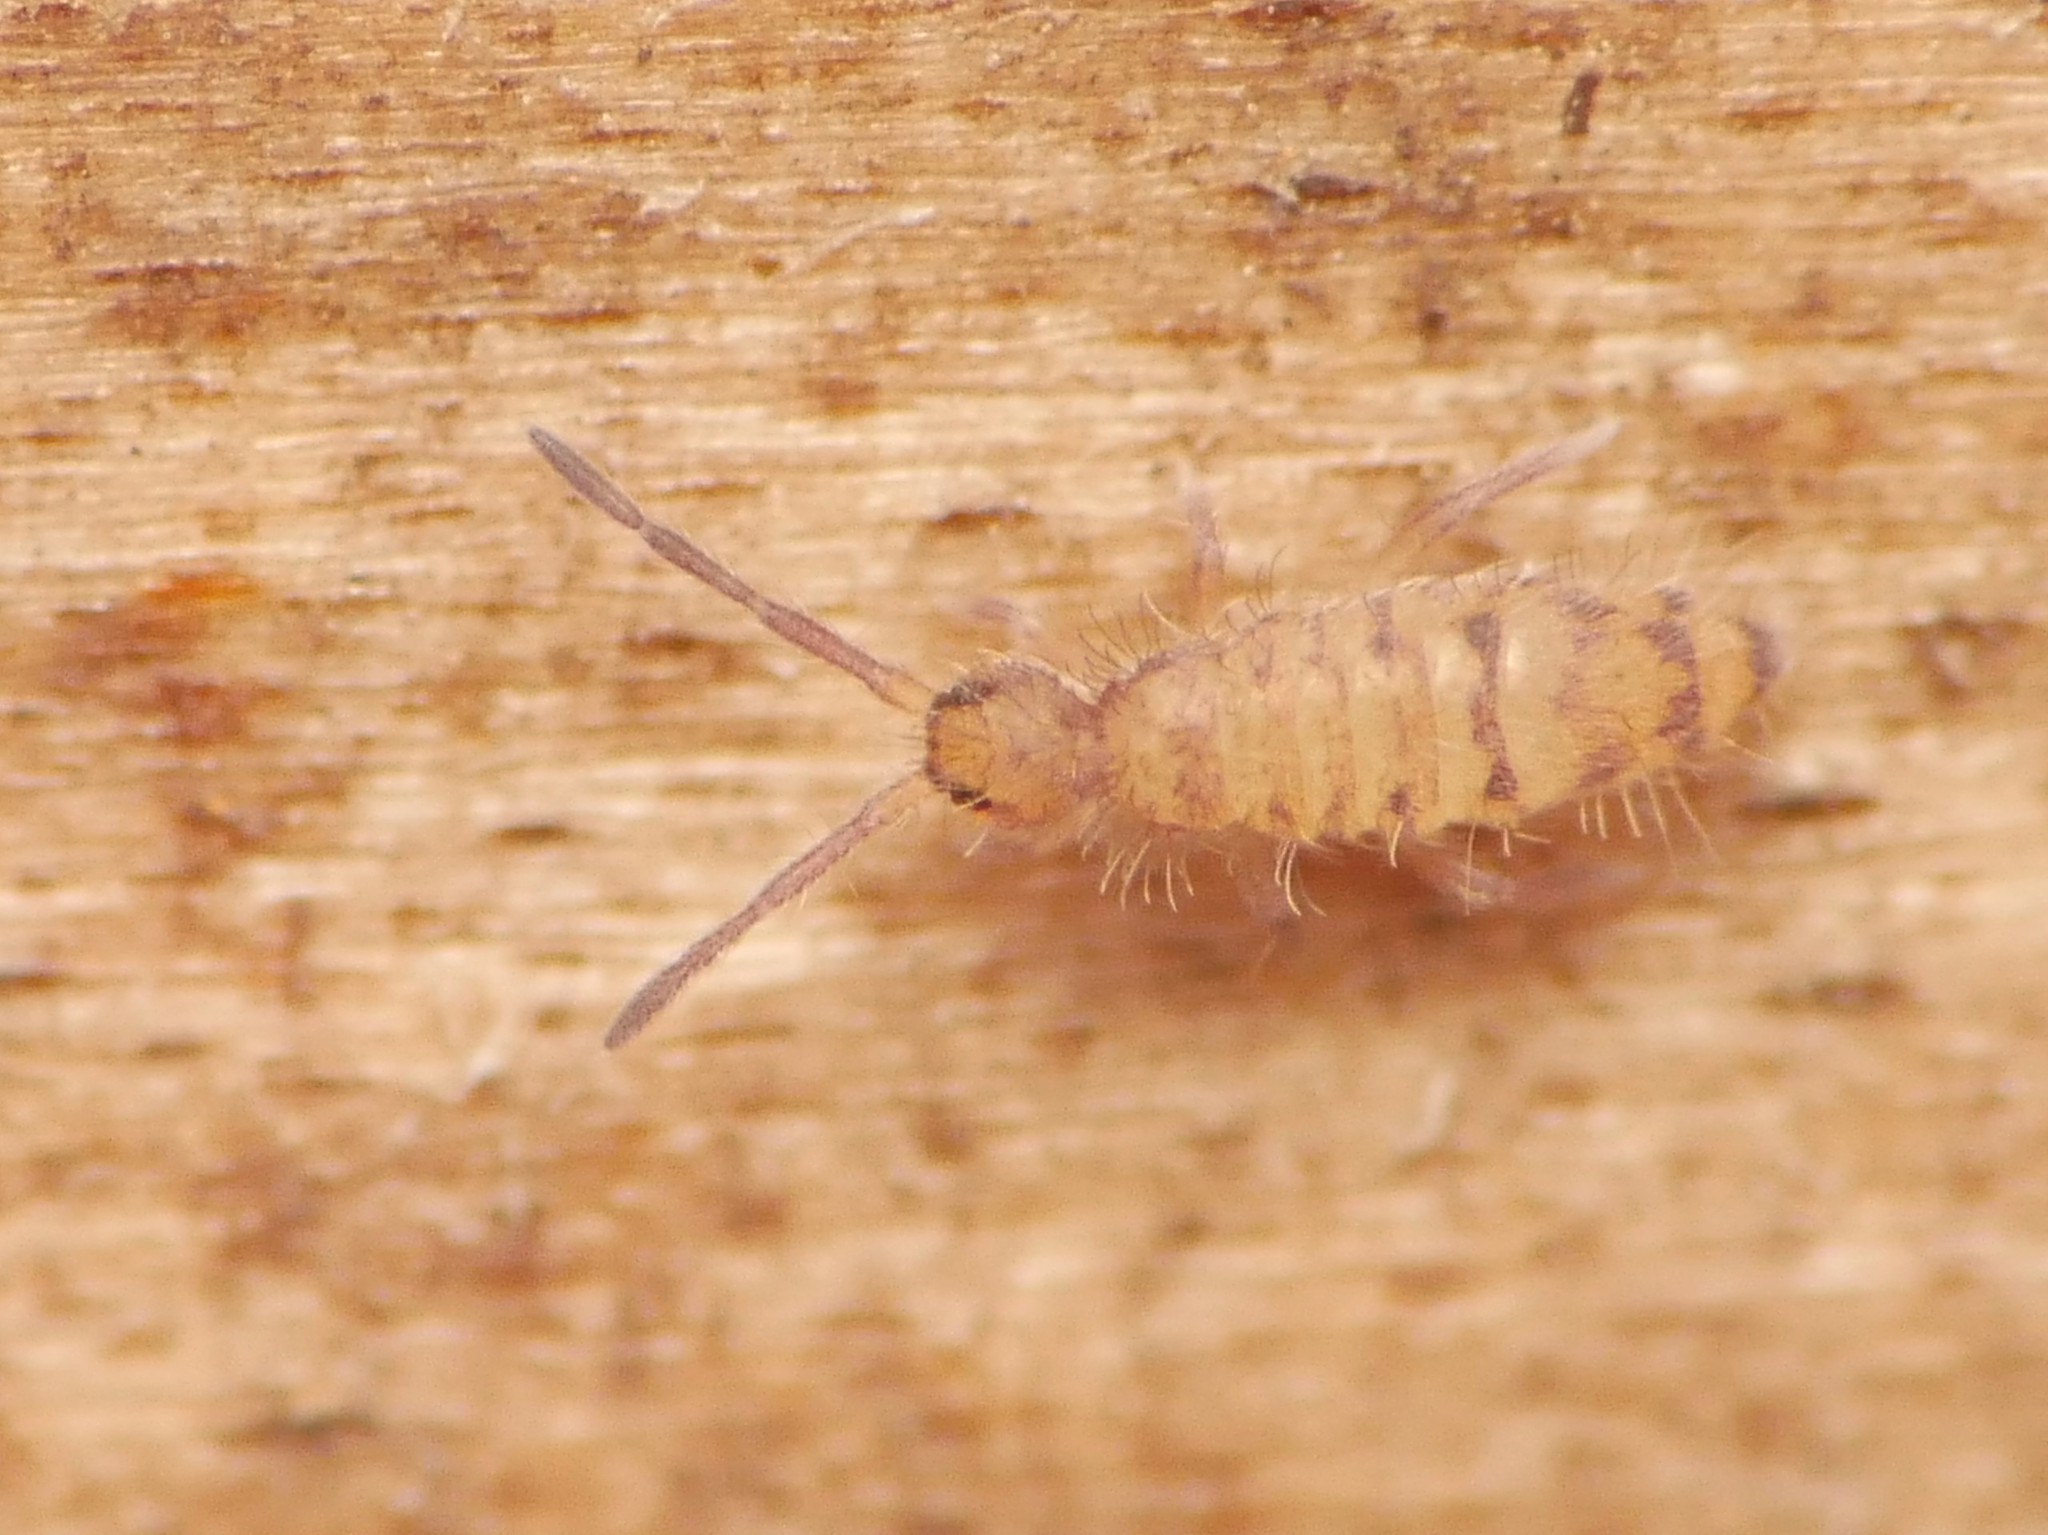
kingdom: Animalia
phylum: Arthropoda
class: Collembola
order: Entomobryomorpha
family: Entomobryidae
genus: Entomobrya
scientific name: Entomobrya multifasciata
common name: Springtail
